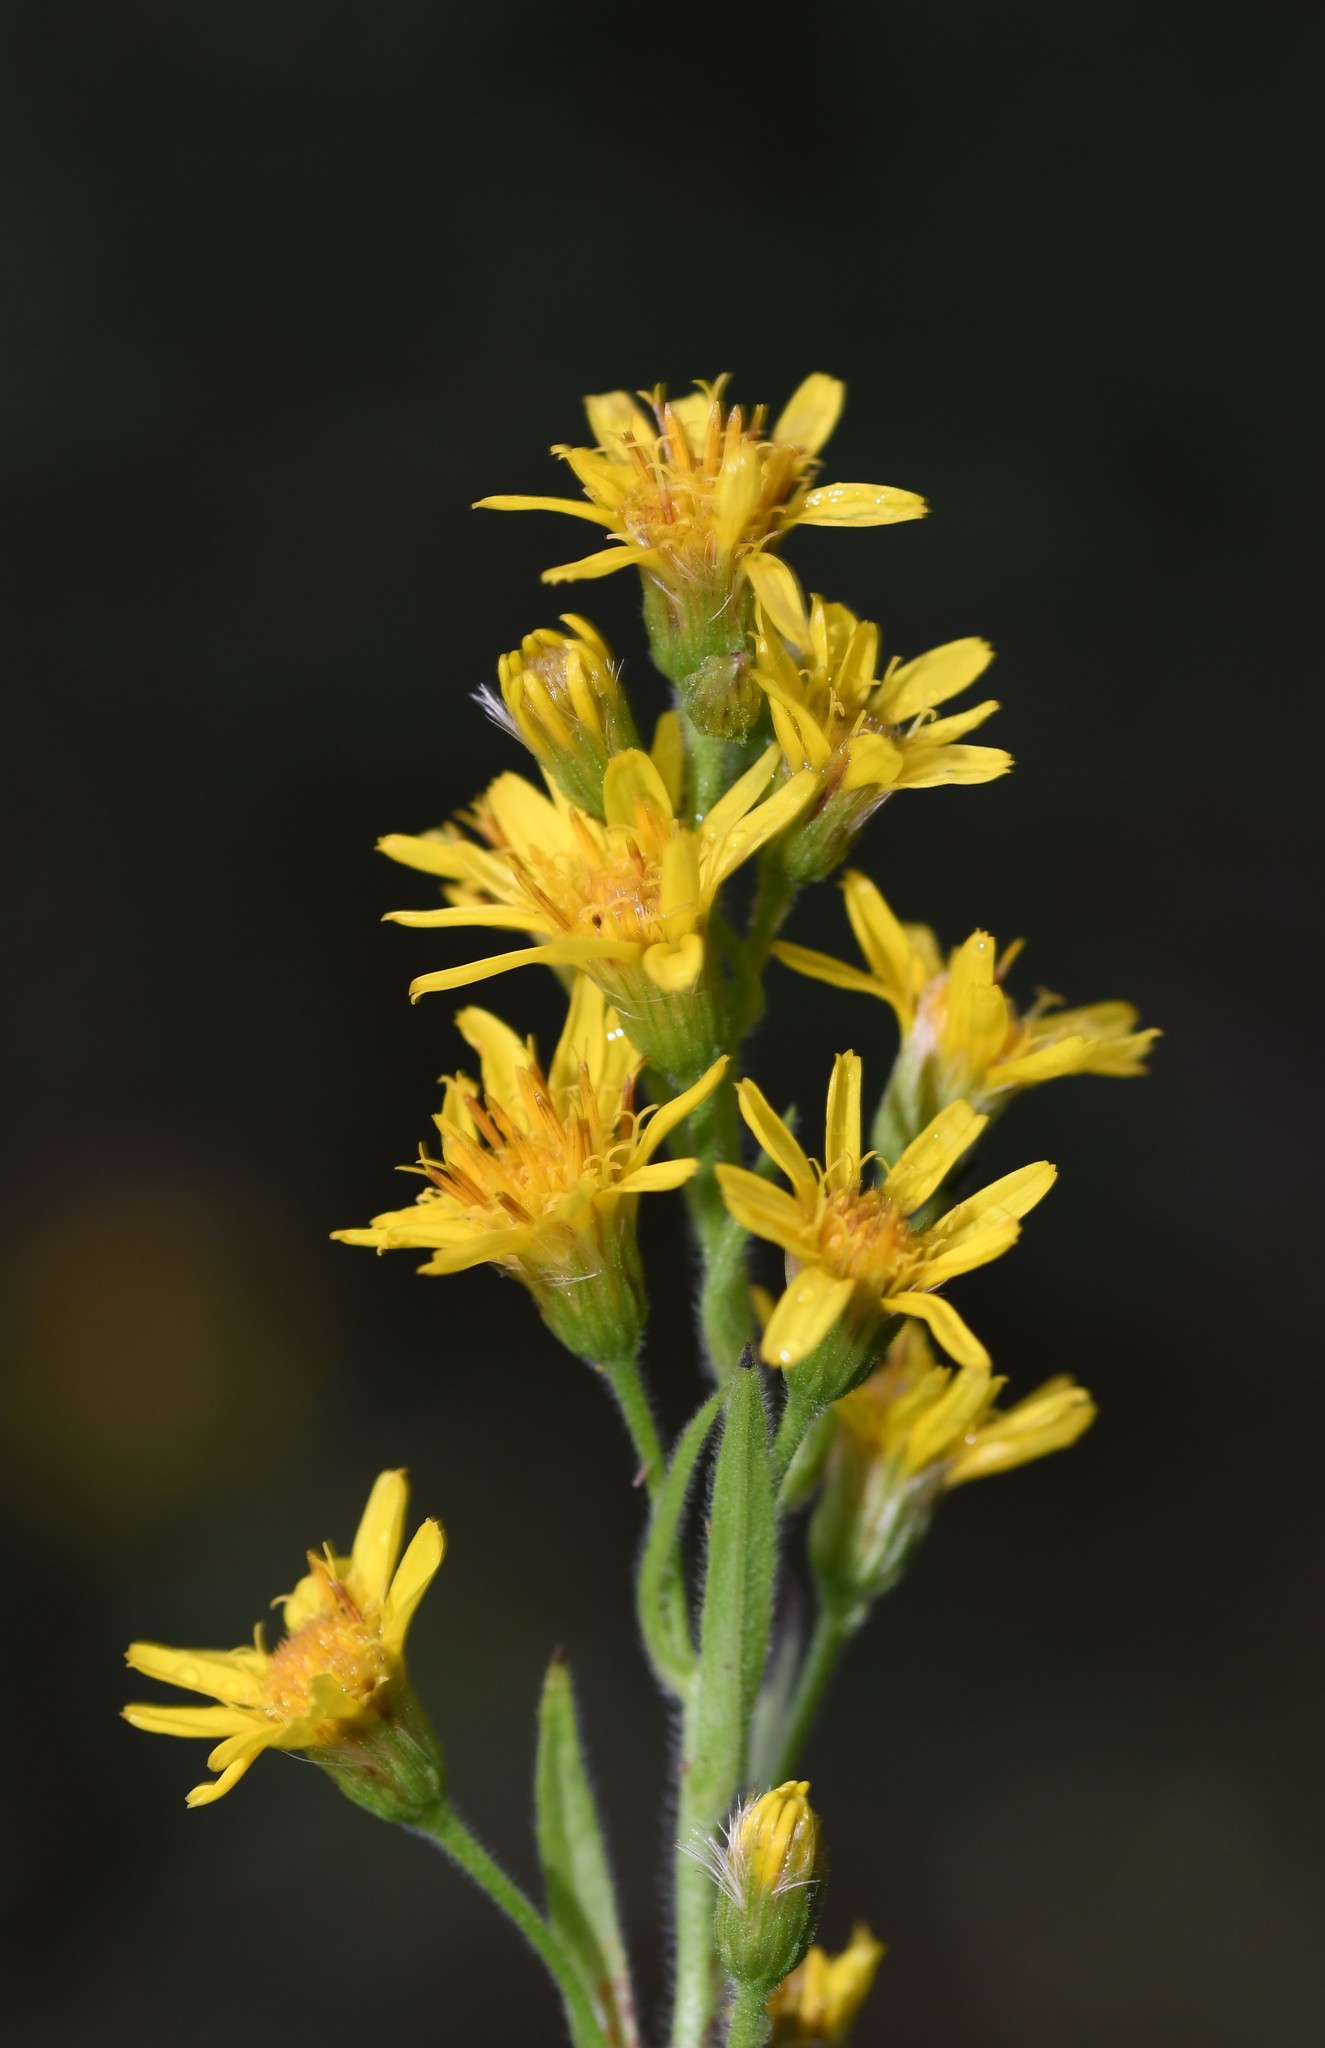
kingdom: Plantae
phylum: Tracheophyta
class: Magnoliopsida
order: Asterales
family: Asteraceae
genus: Dittrichia
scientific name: Dittrichia viscosa
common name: Woody fleabane
